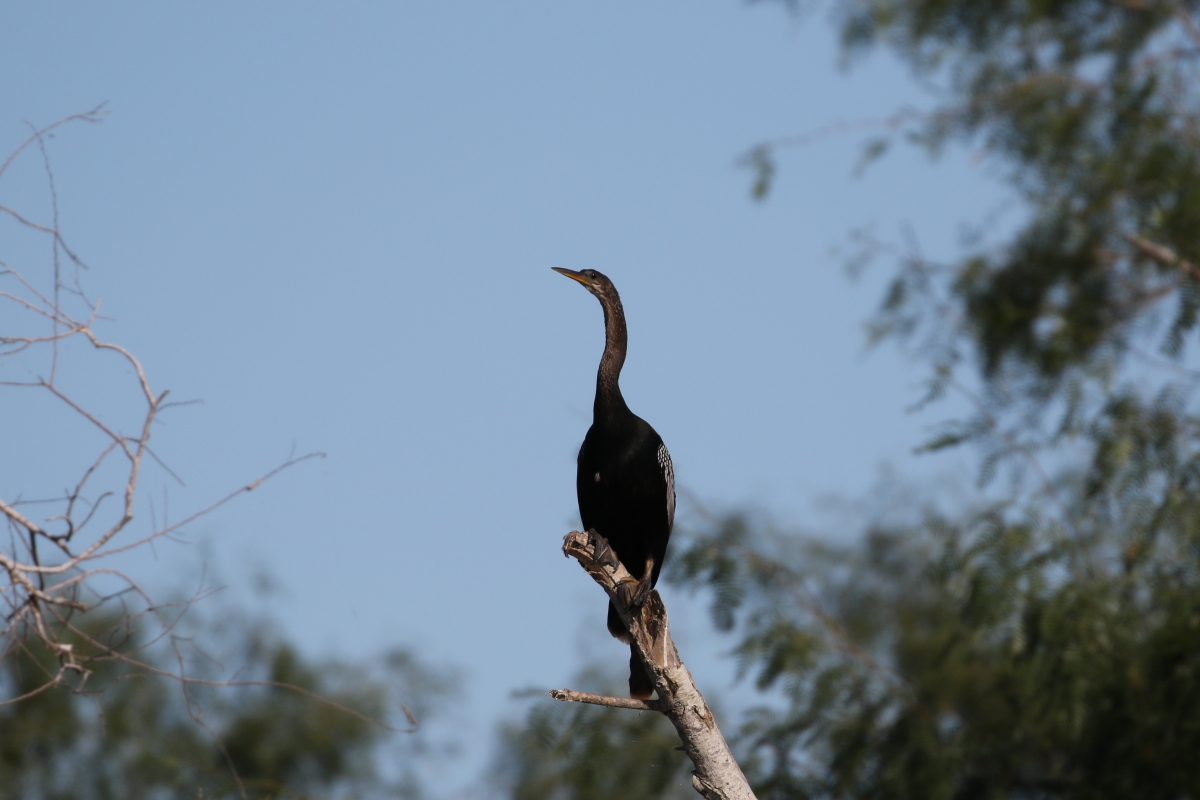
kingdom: Animalia
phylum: Chordata
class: Aves
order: Suliformes
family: Anhingidae
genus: Anhinga
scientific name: Anhinga anhinga
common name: Anhinga
